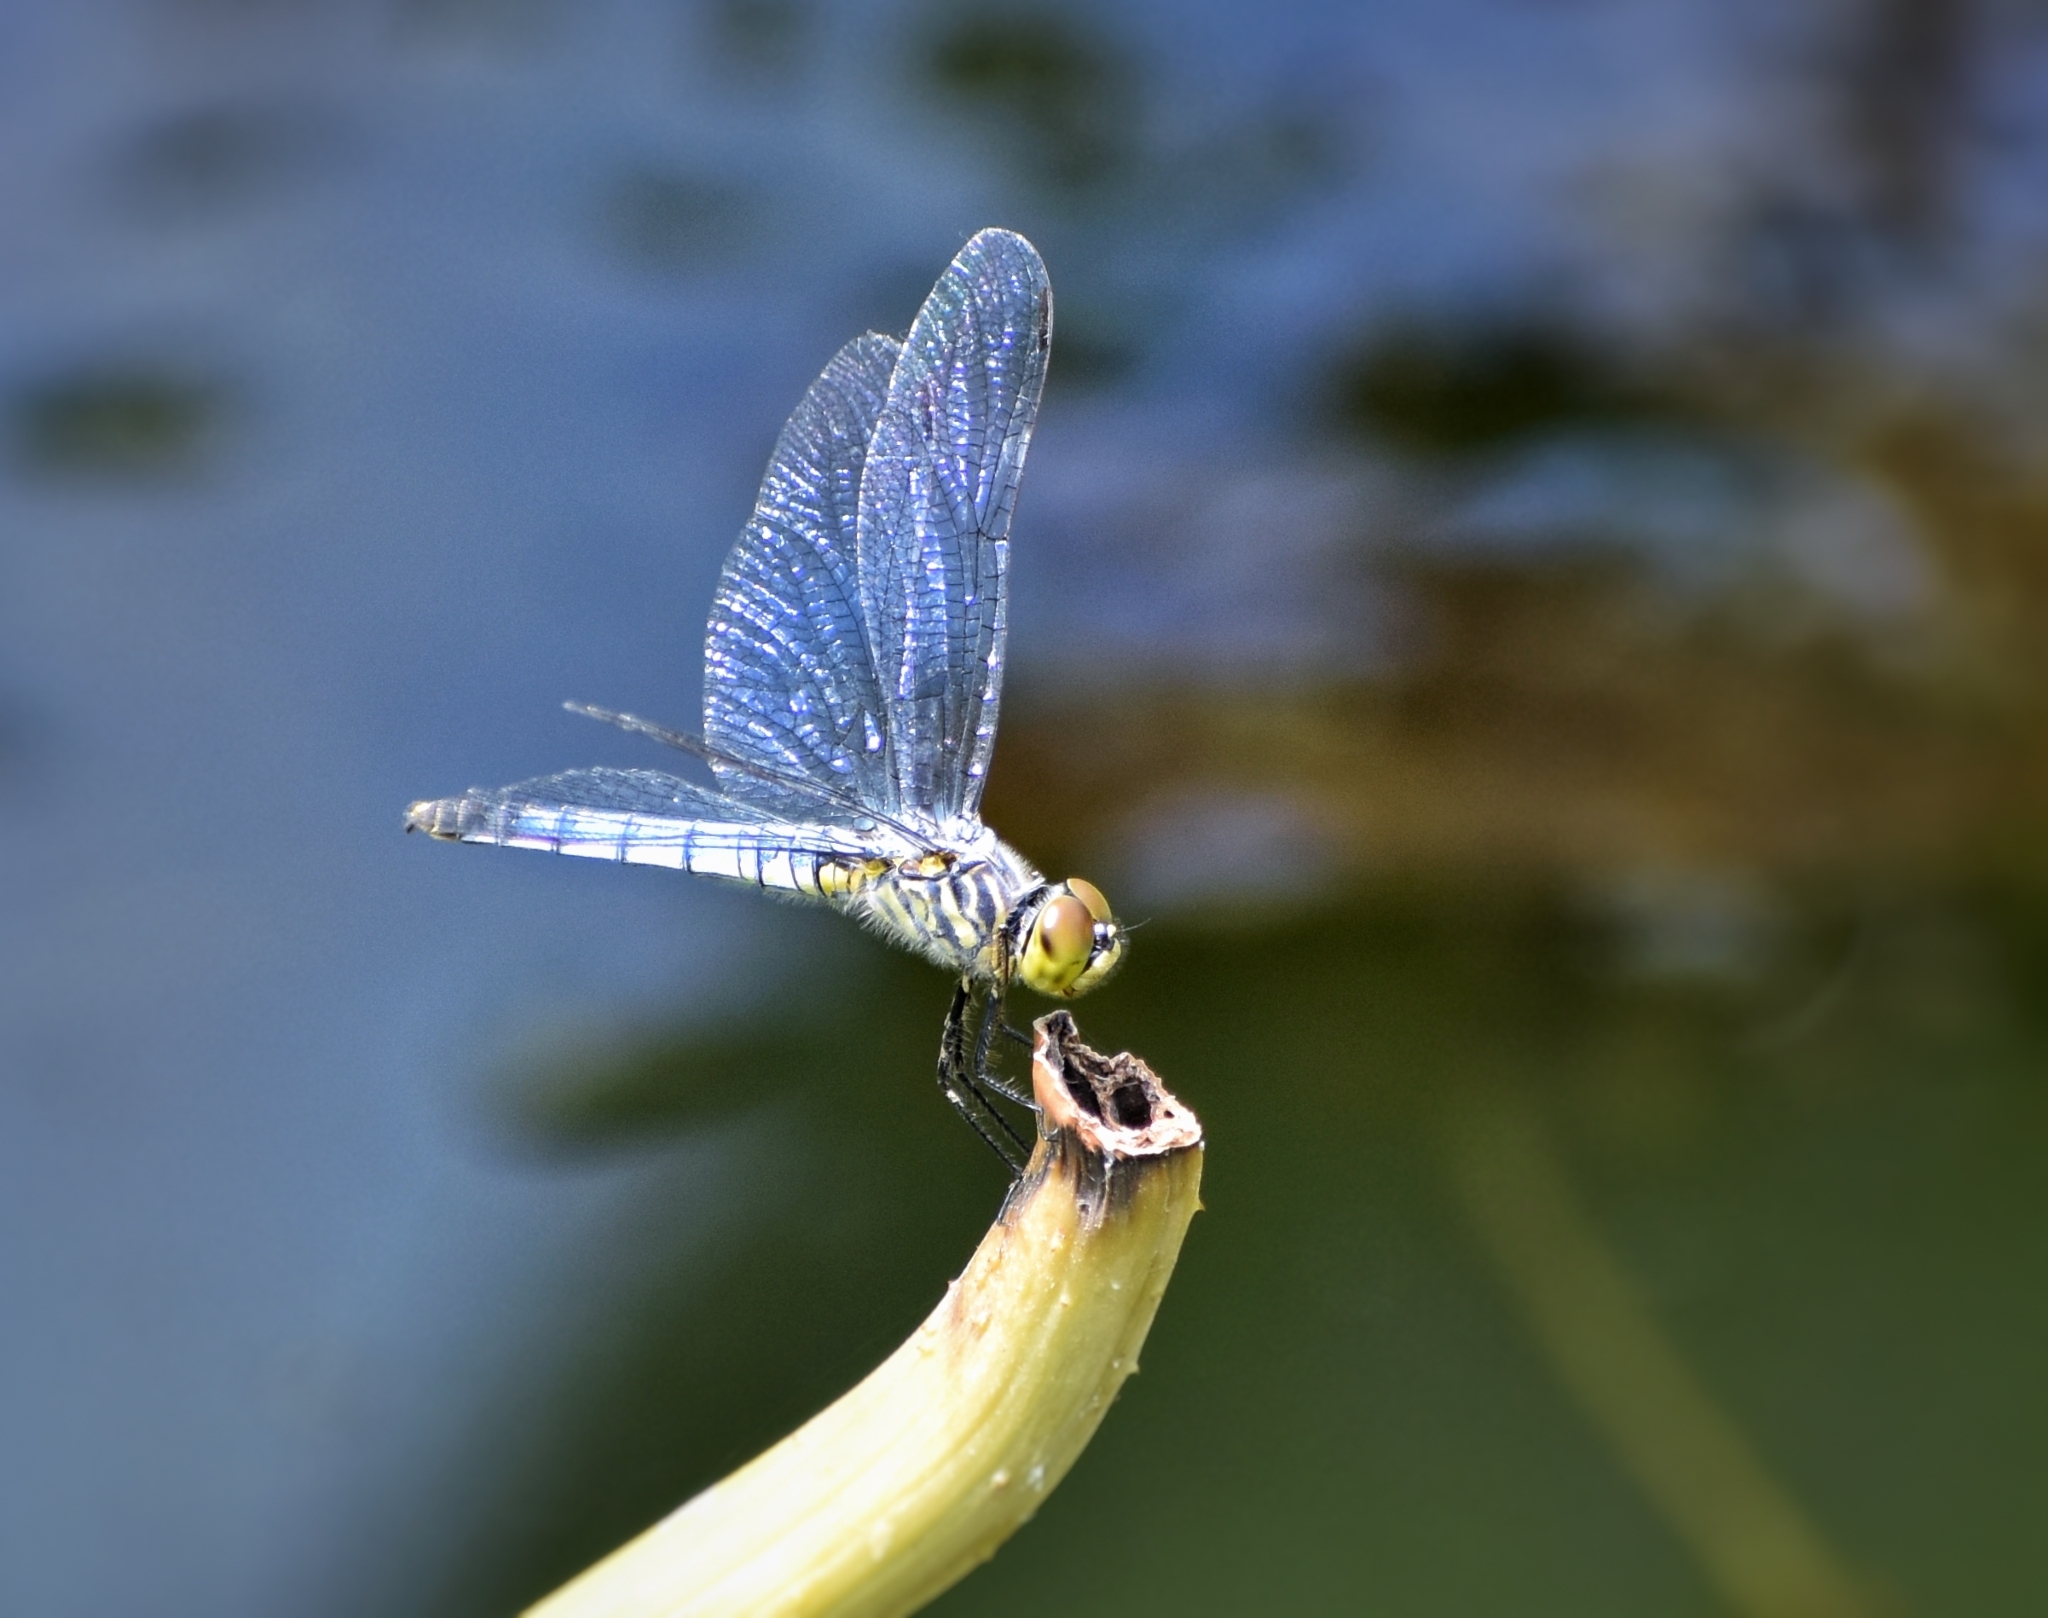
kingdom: Animalia
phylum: Arthropoda
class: Insecta
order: Odonata
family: Libellulidae
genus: Deielia
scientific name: Deielia phaon
